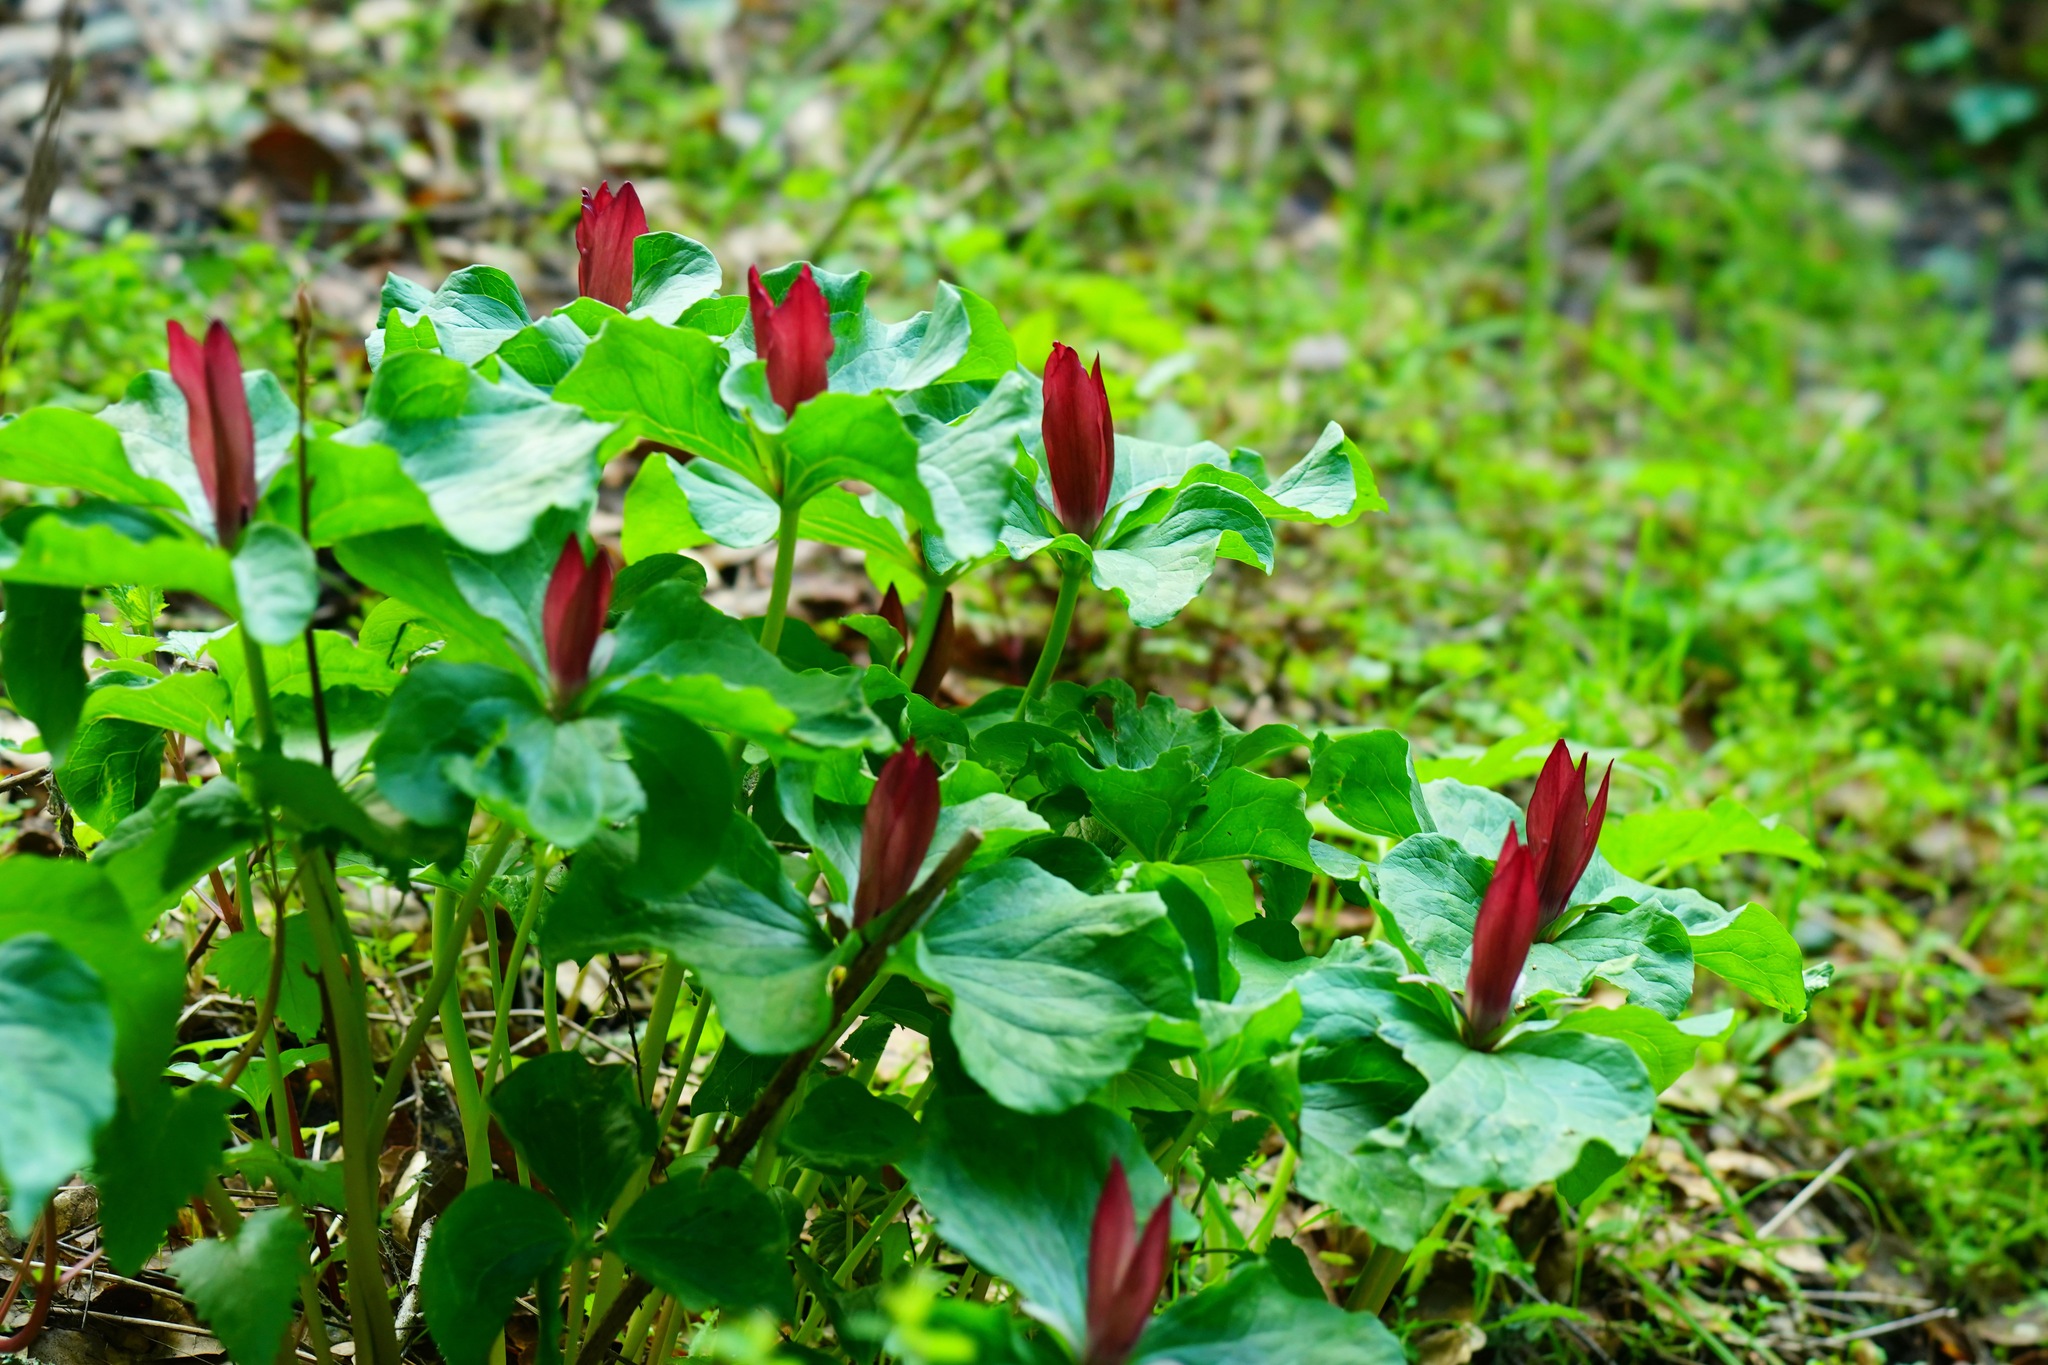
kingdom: Plantae
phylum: Tracheophyta
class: Liliopsida
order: Liliales
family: Melanthiaceae
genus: Trillium
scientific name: Trillium chloropetalum
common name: Giant trillium
